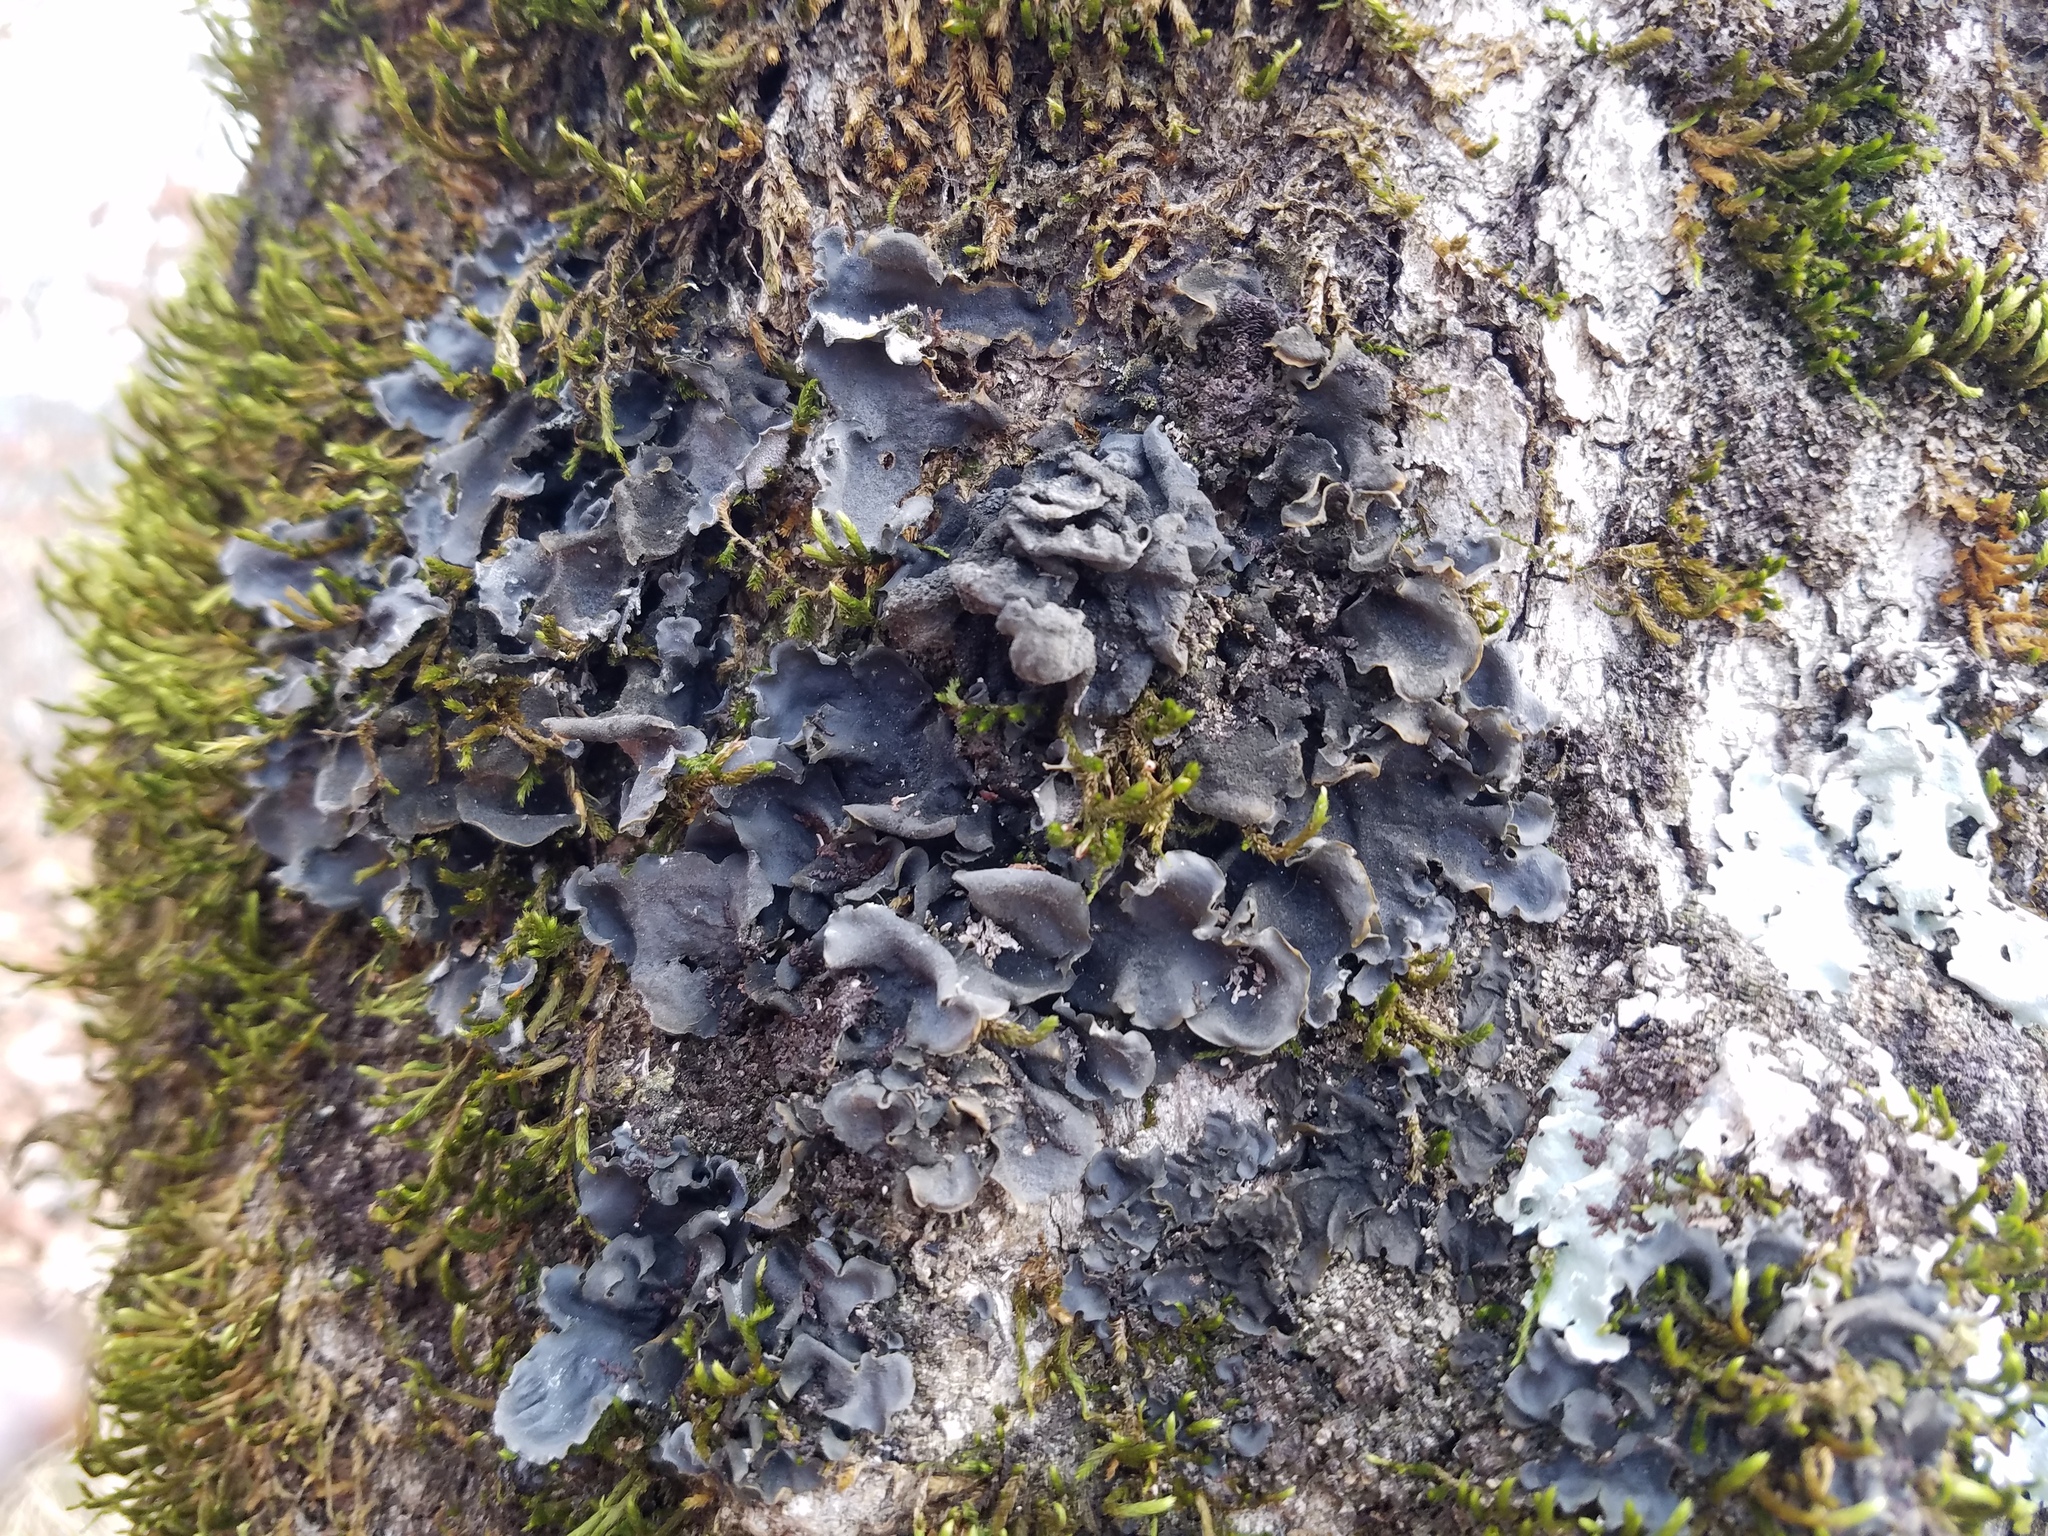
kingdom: Fungi
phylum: Ascomycota
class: Lecanoromycetes
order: Peltigerales
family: Collemataceae
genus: Leptogium
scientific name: Leptogium hirsutum
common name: Hairy jellyskin lichen
